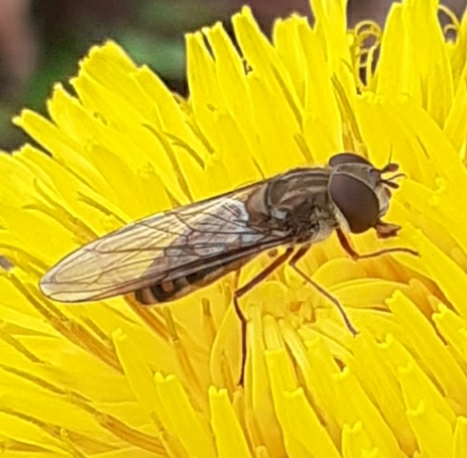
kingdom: Animalia
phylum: Arthropoda
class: Insecta
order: Diptera
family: Syrphidae
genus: Episyrphus
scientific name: Episyrphus balteatus
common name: Marmalade hoverfly
